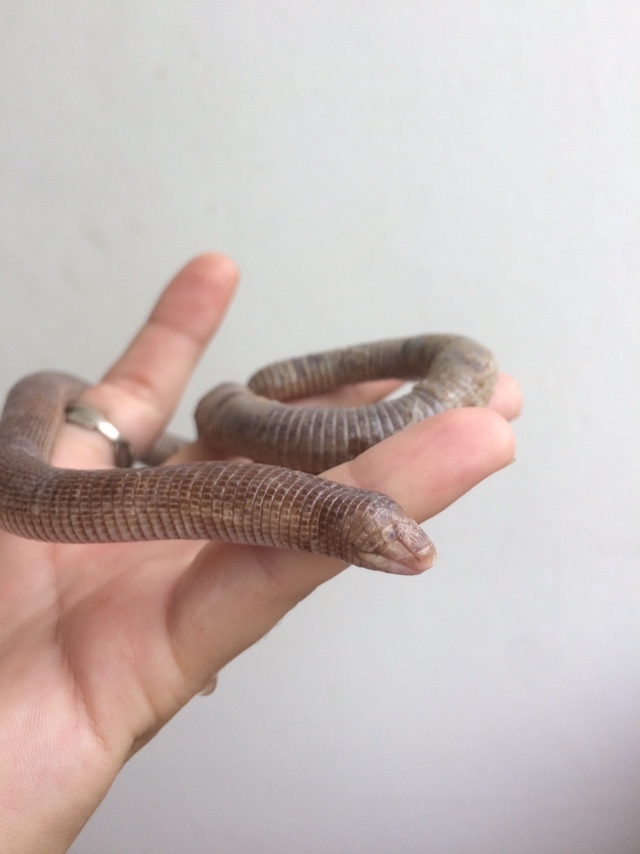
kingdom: Animalia
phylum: Chordata
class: Squamata
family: Amphisbaenidae
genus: Amphisbaena
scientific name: Amphisbaena darwinii
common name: Darwin's ringed worm lizard
